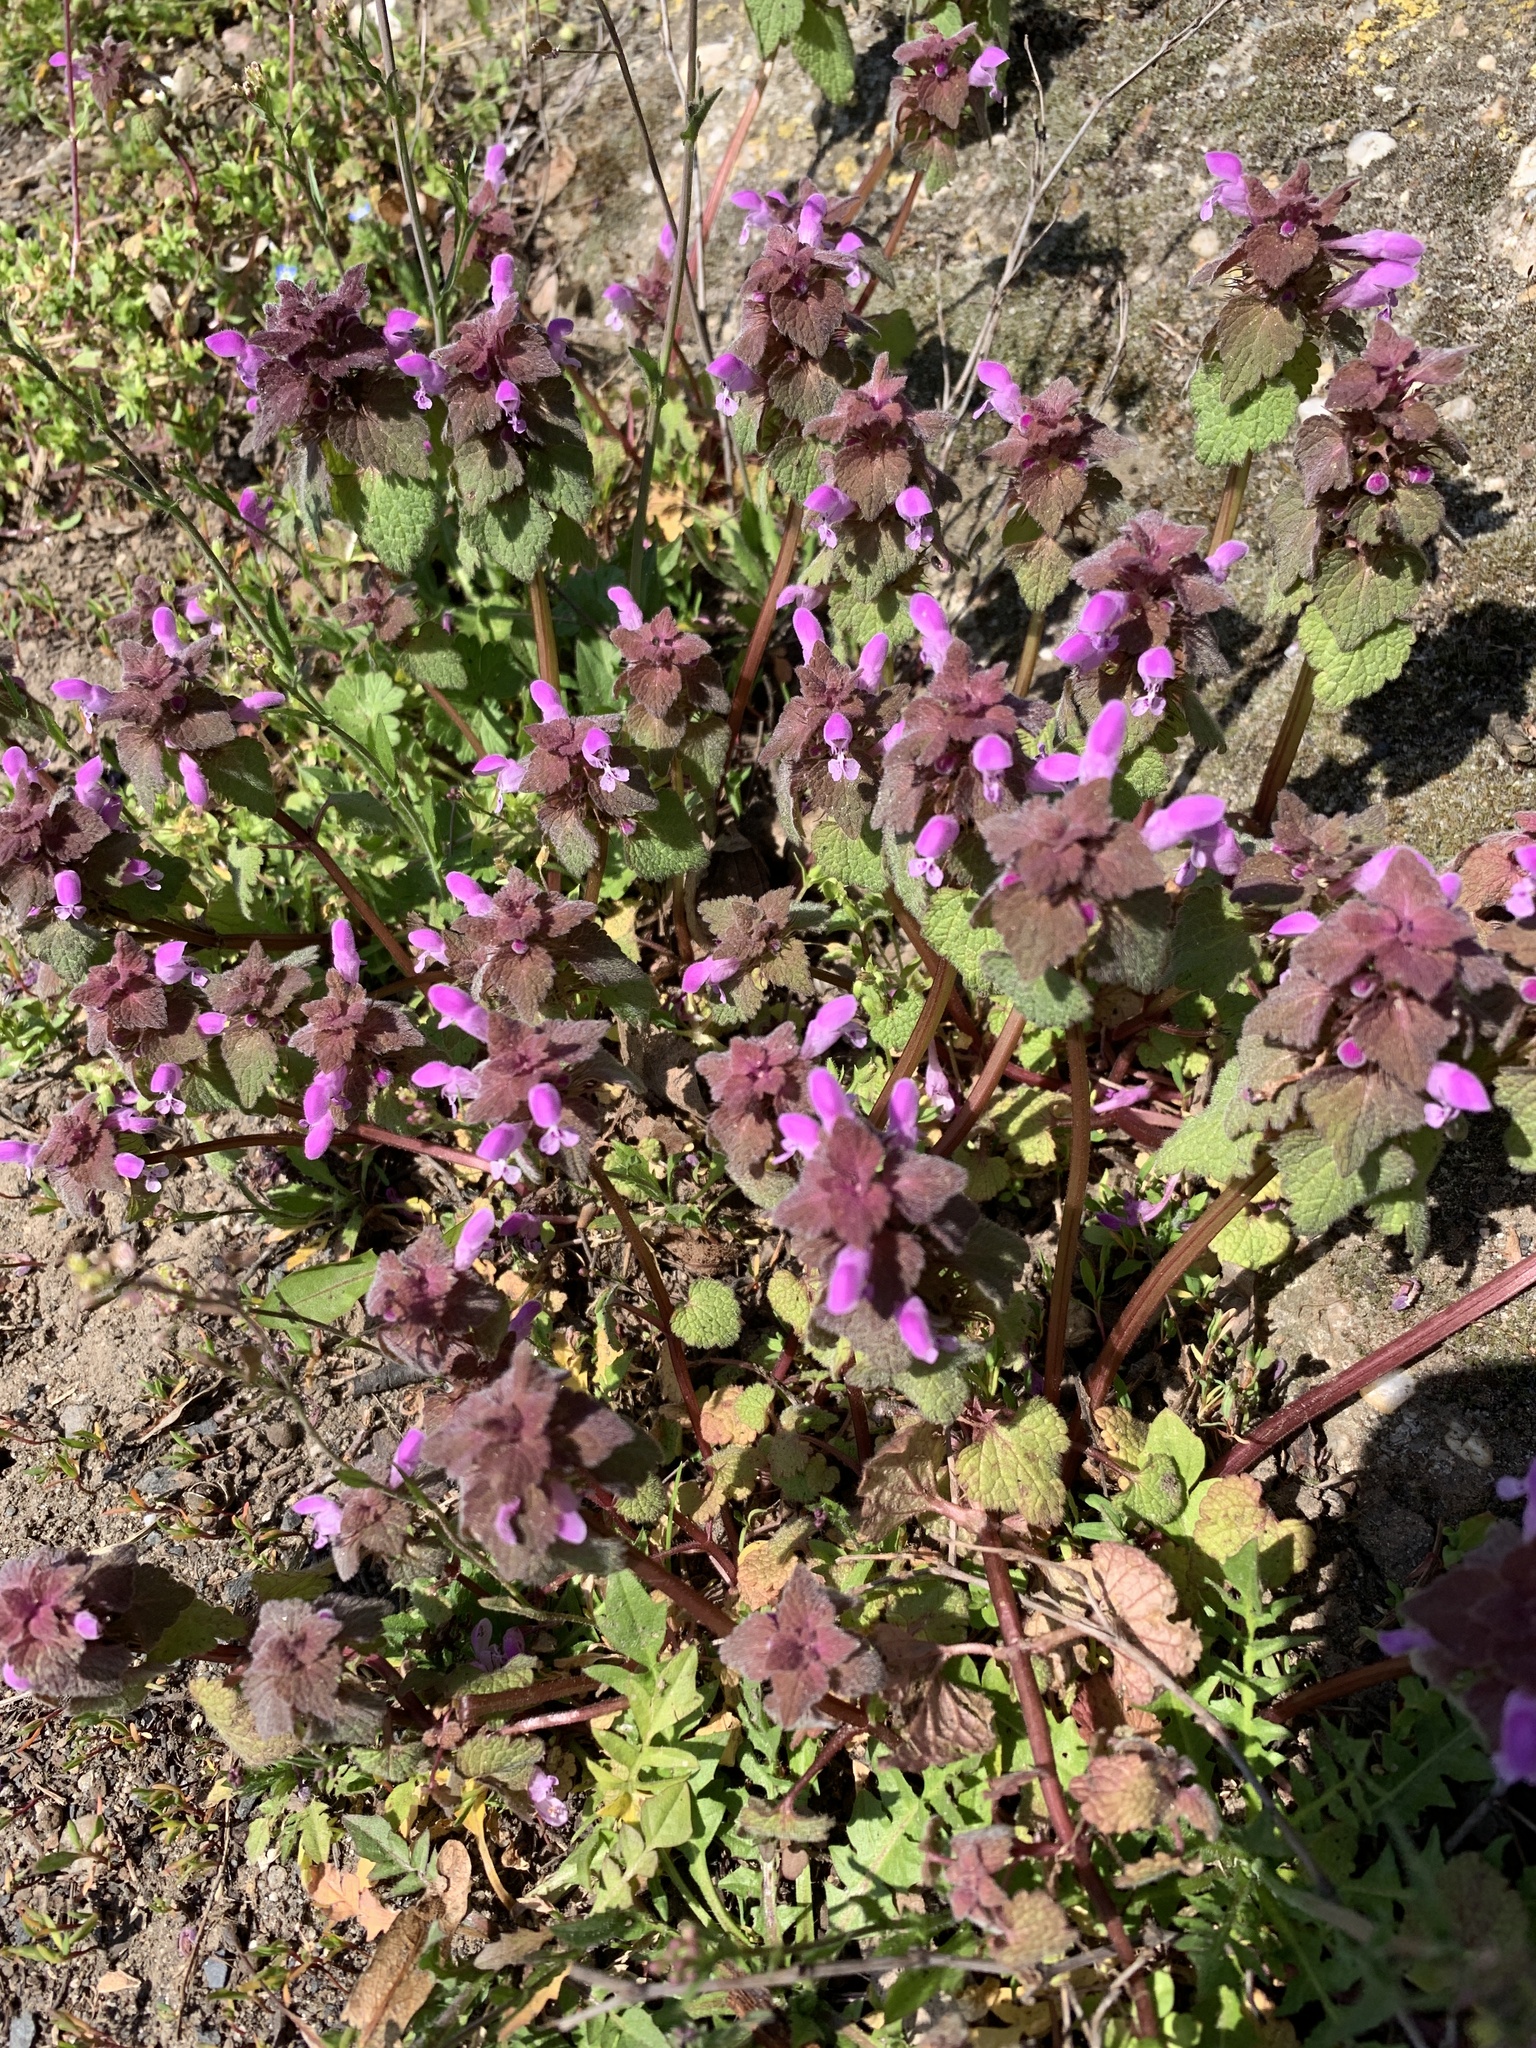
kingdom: Plantae
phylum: Tracheophyta
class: Magnoliopsida
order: Lamiales
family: Lamiaceae
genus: Lamium
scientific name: Lamium purpureum
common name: Red dead-nettle
